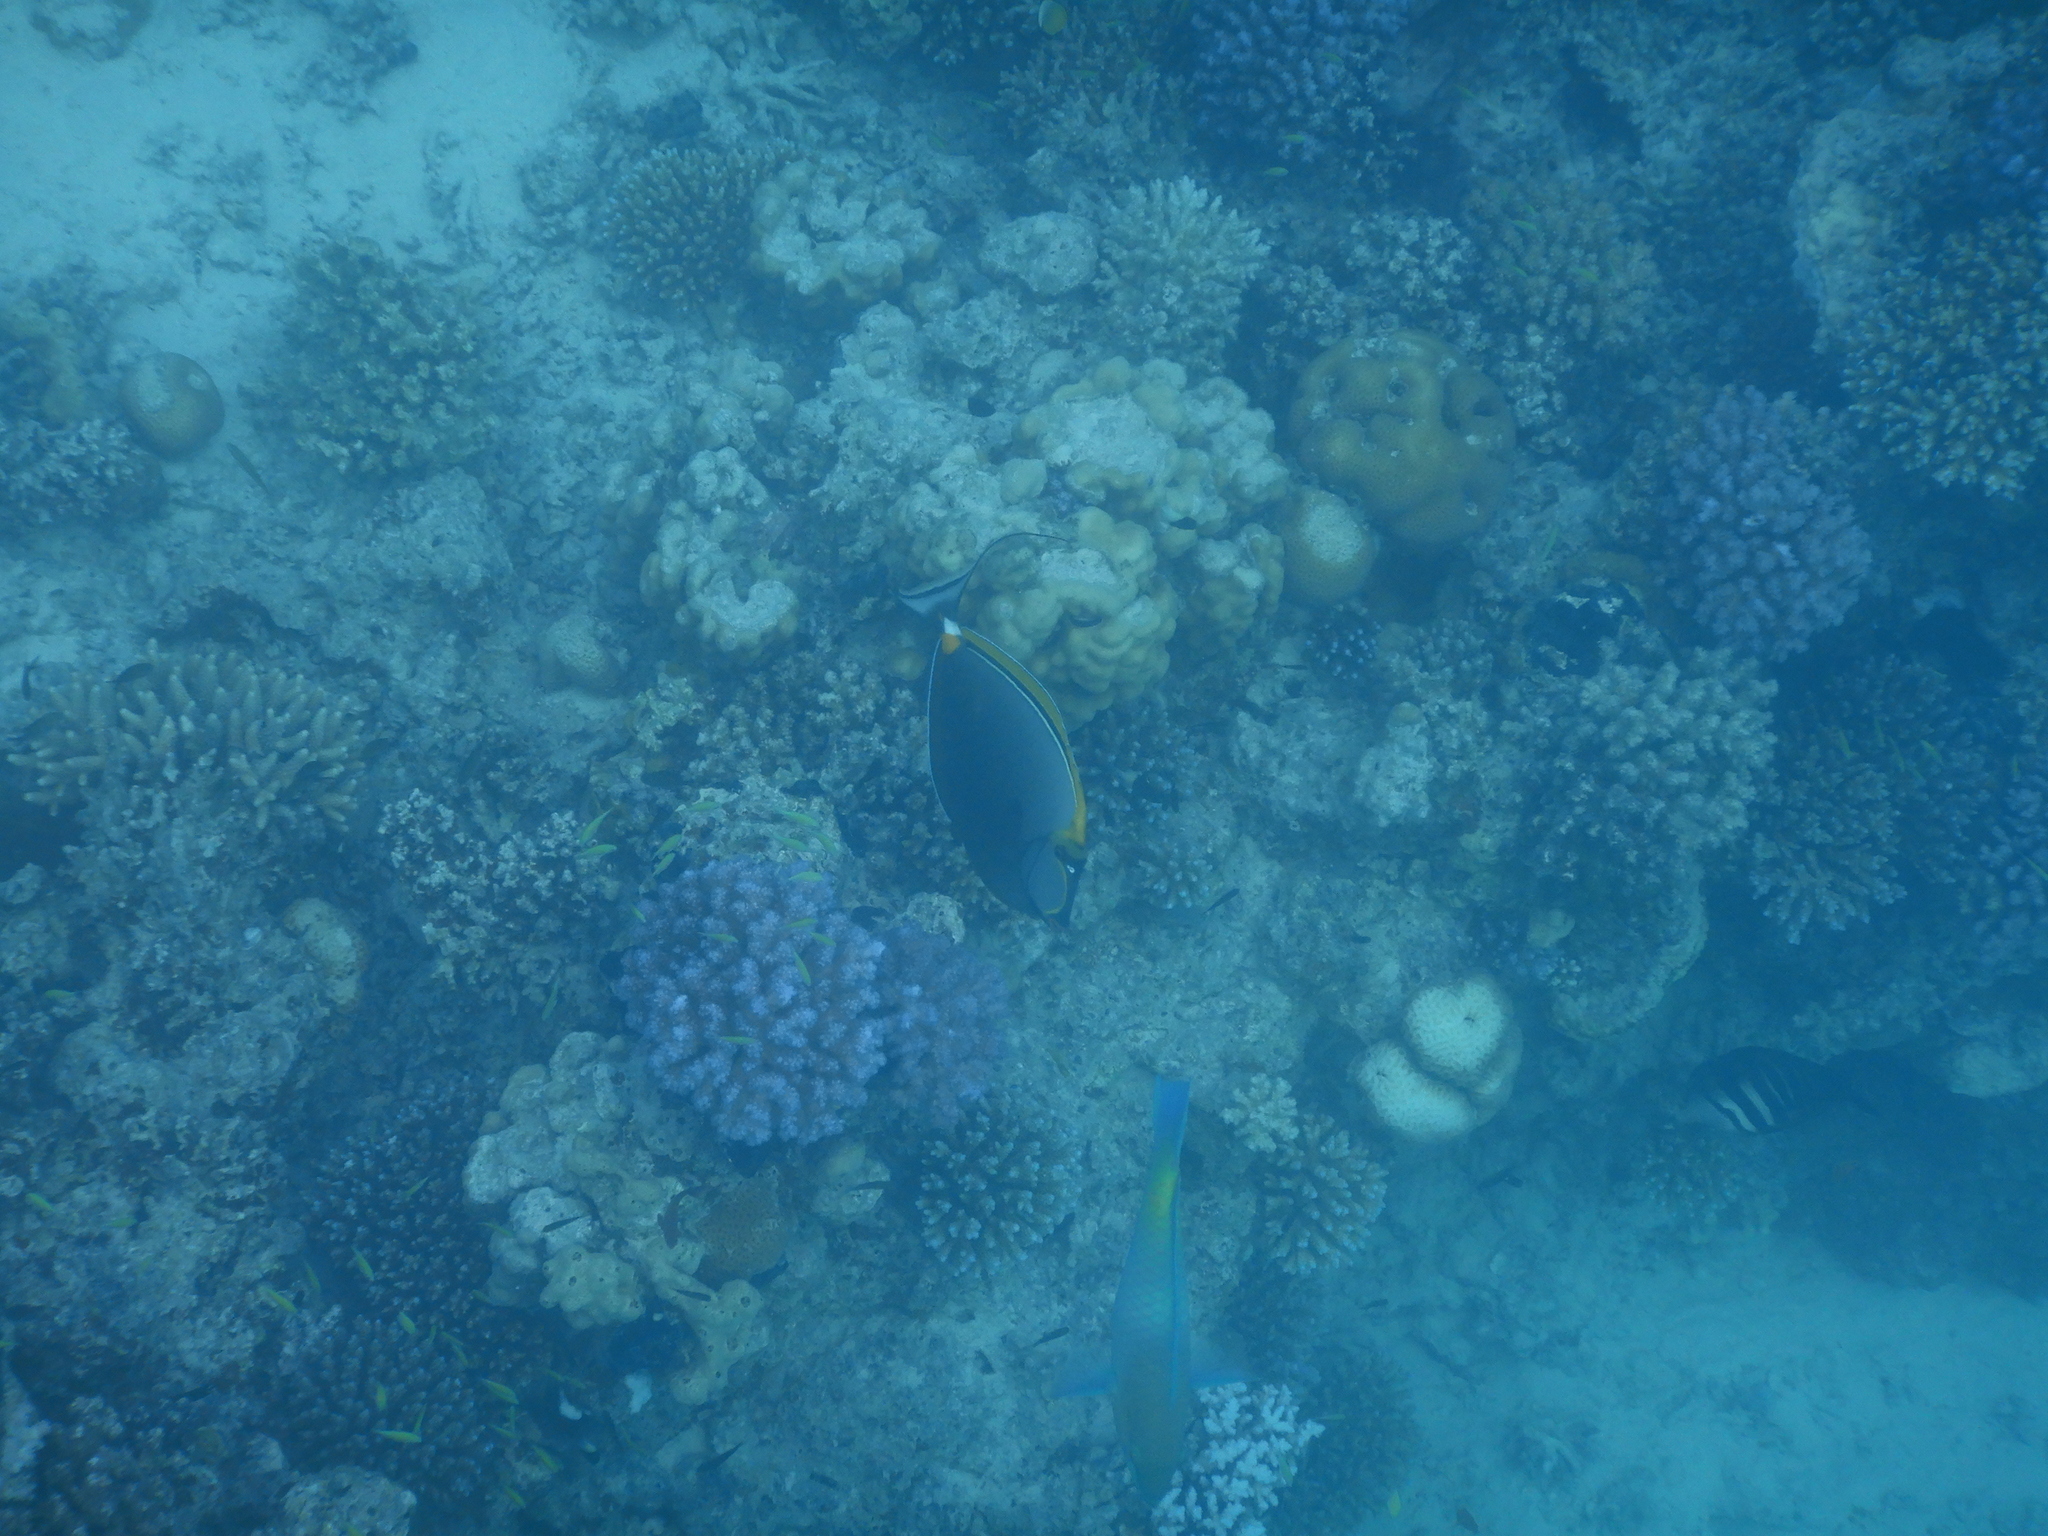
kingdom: Animalia
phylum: Chordata
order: Perciformes
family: Acanthuridae
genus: Naso
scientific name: Naso elegans
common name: Orangespine unicornfish
